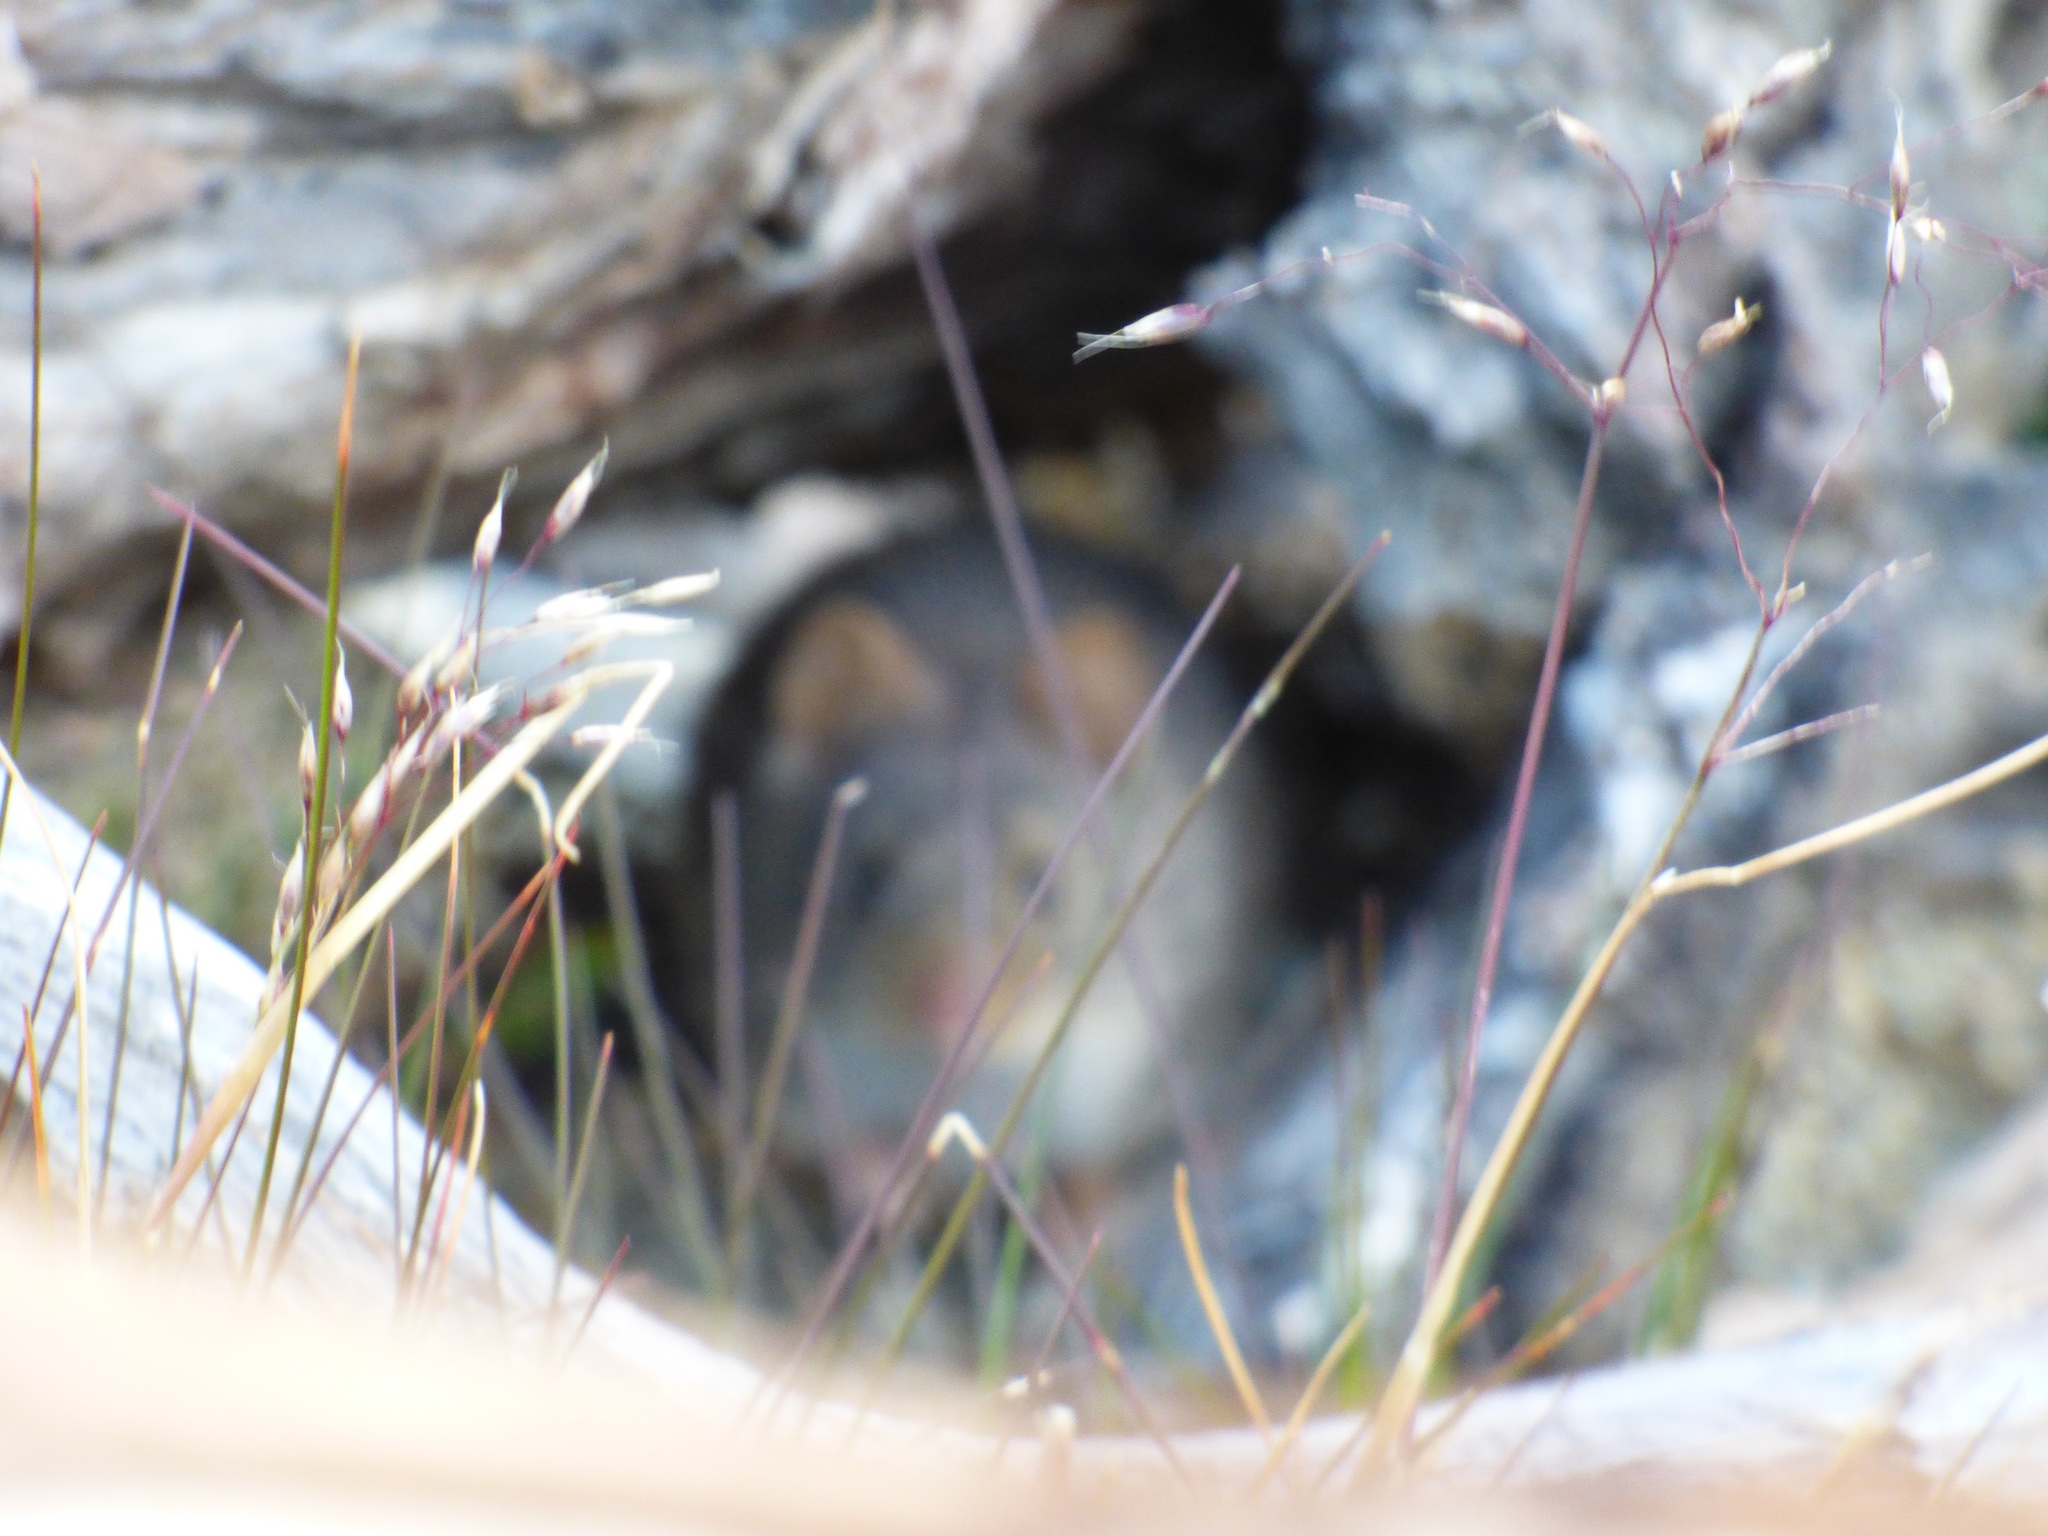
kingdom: Animalia
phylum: Chordata
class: Mammalia
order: Rodentia
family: Muridae
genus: Rattus
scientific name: Rattus rattus
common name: Black rat
